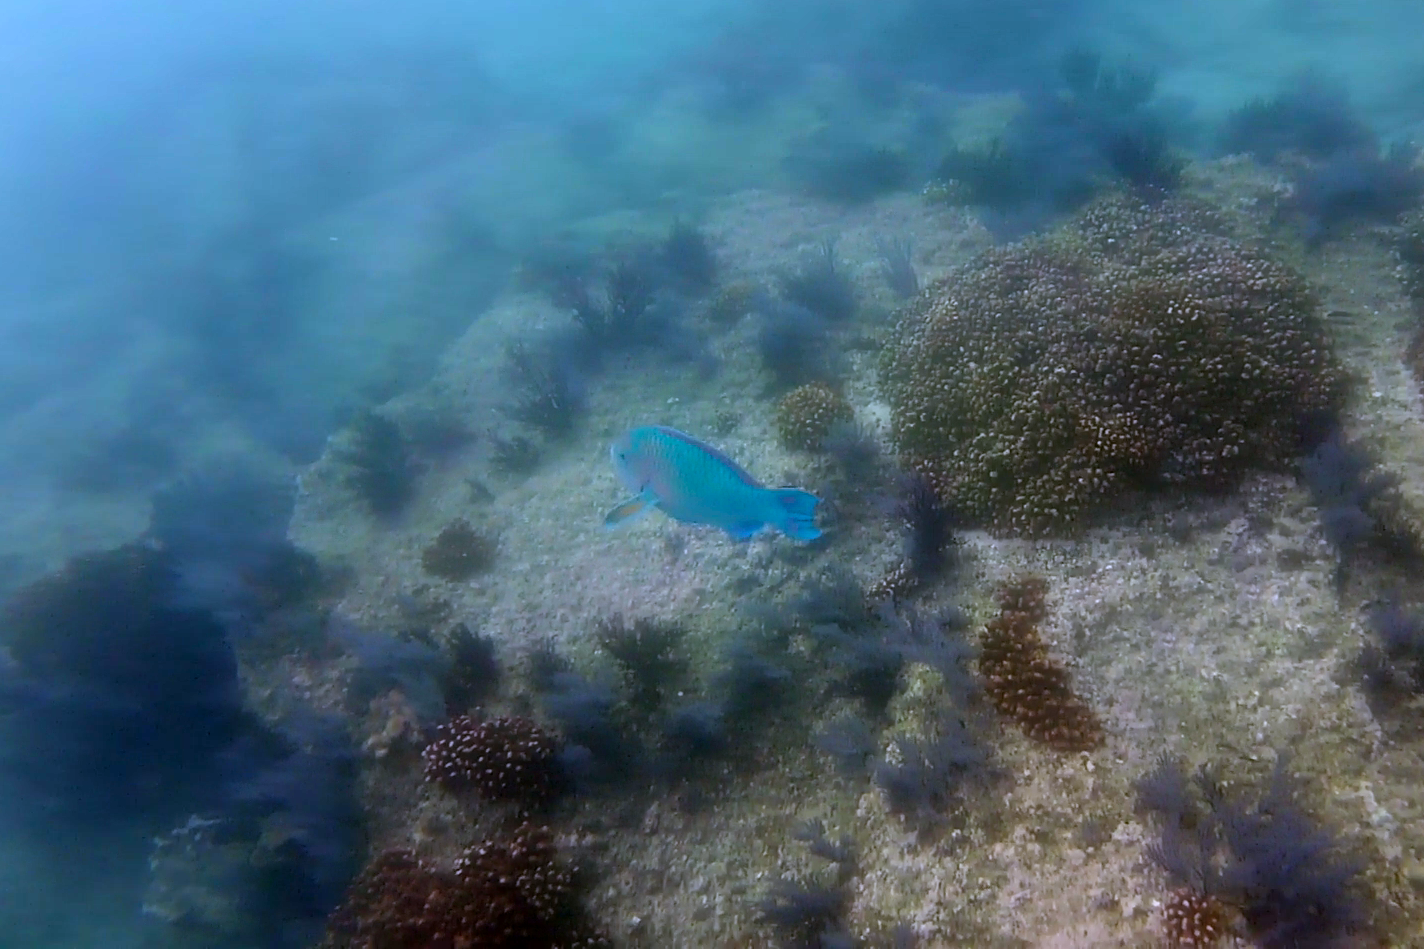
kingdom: Animalia
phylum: Chordata
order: Perciformes
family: Scaridae
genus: Scarus
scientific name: Scarus compressus
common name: Azure parrotfish
